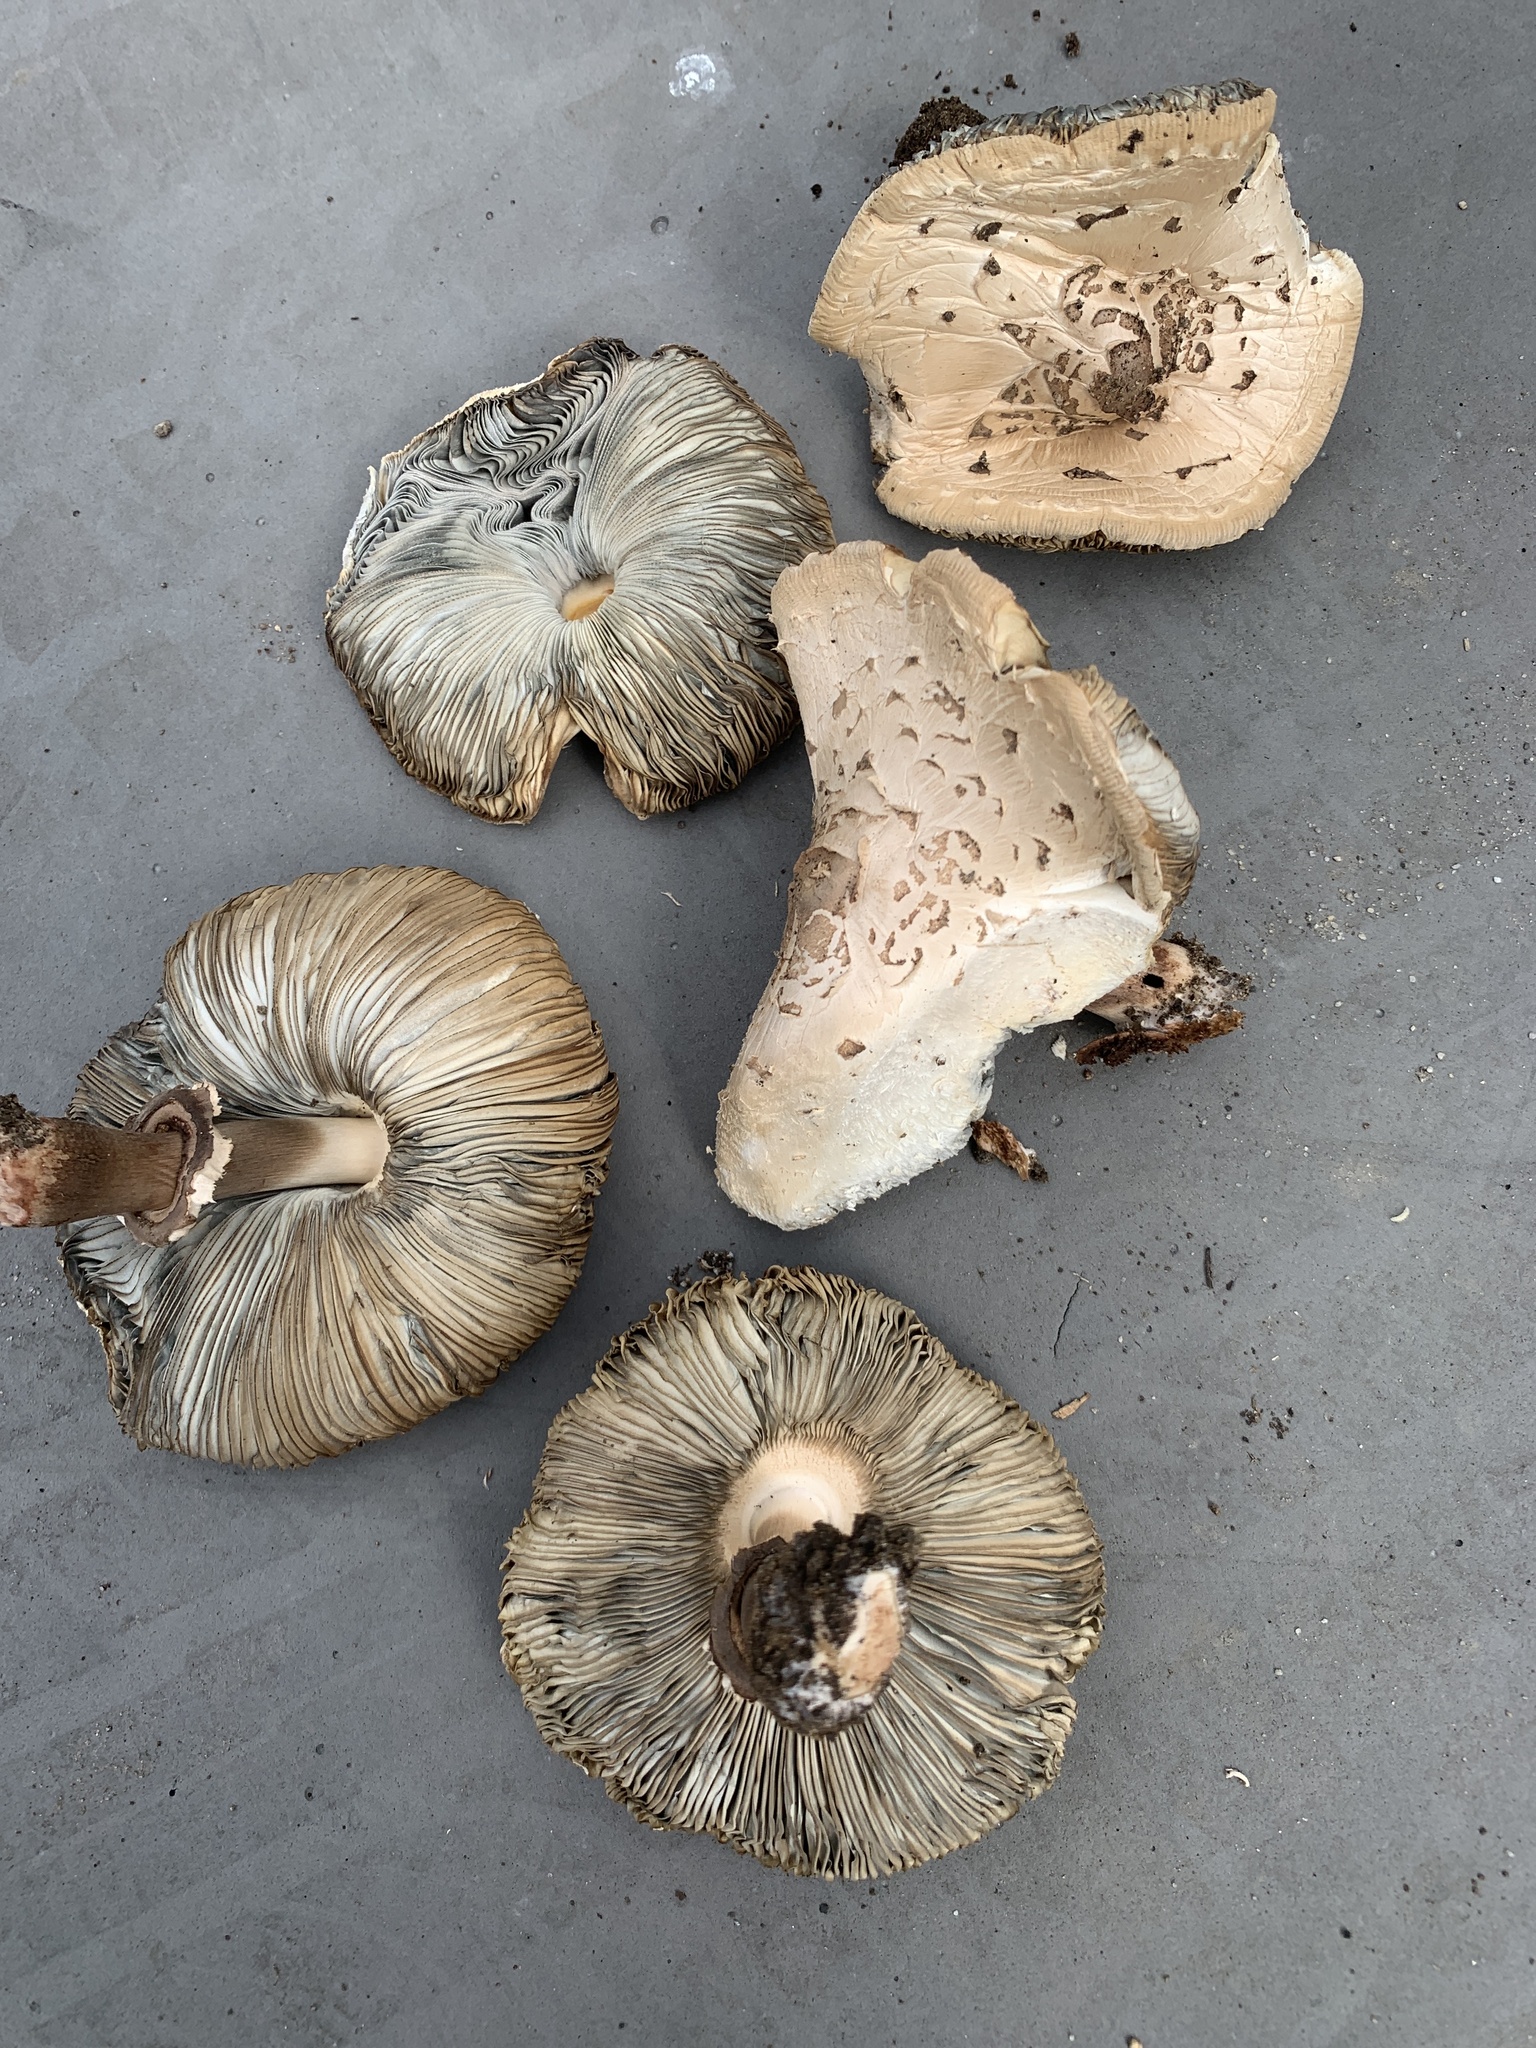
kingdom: Fungi
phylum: Basidiomycota
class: Agaricomycetes
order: Agaricales
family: Agaricaceae
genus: Chlorophyllum
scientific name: Chlorophyllum molybdites
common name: False parasol
